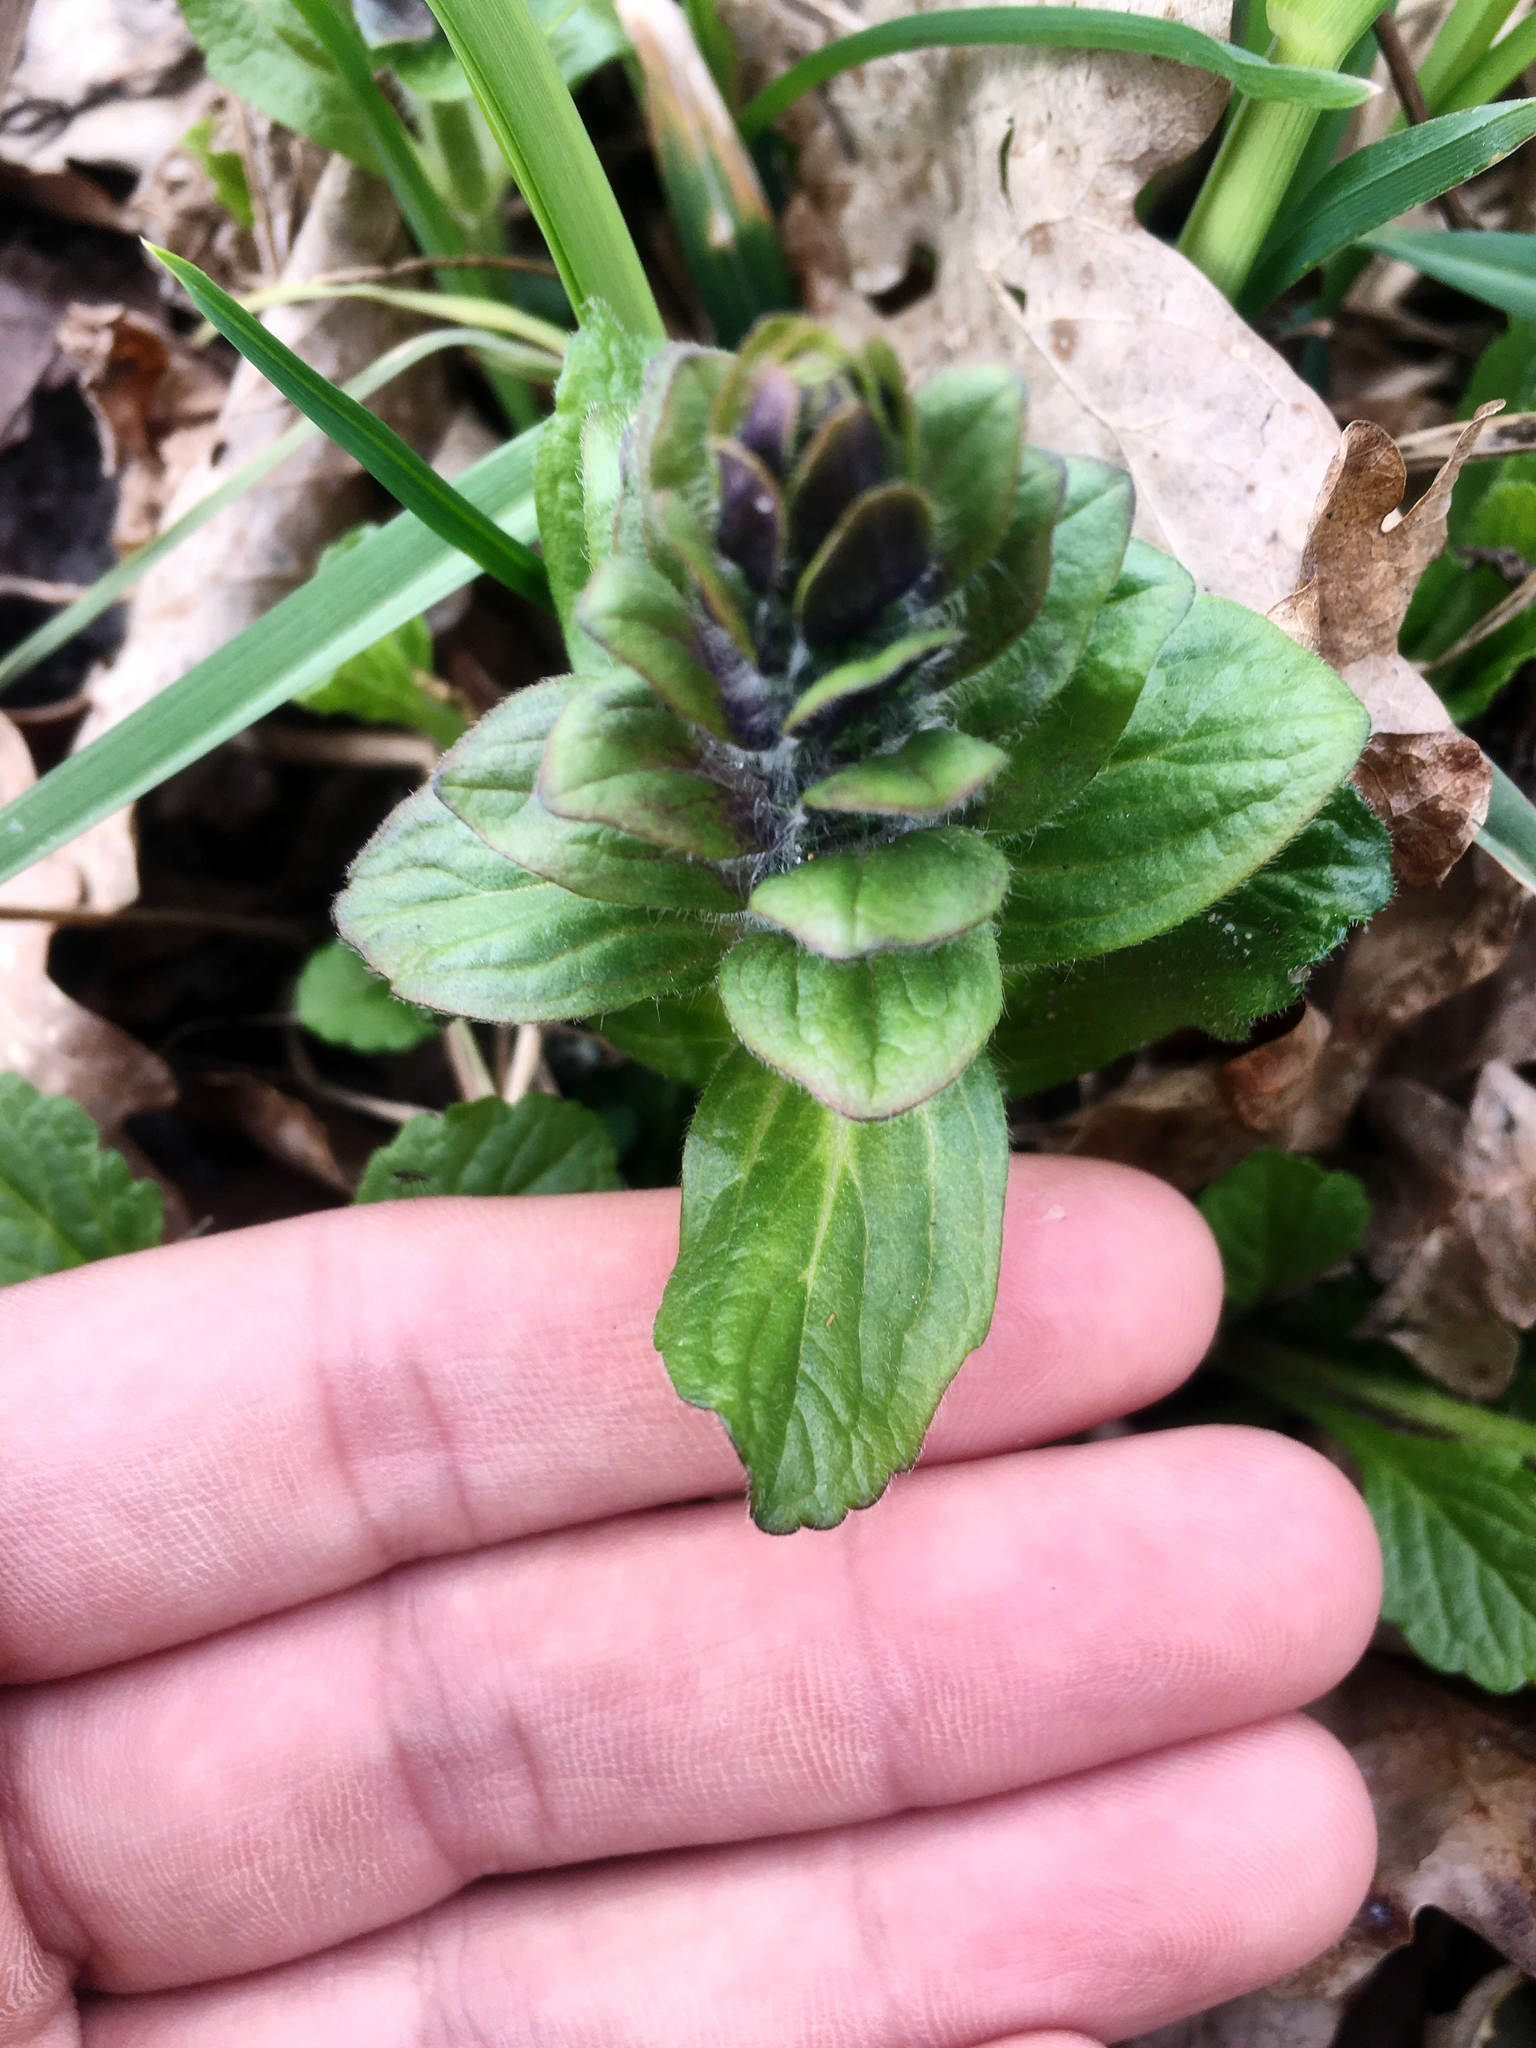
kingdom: Plantae
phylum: Tracheophyta
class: Magnoliopsida
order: Lamiales
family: Lamiaceae
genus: Ajuga
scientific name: Ajuga reptans
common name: Bugle
